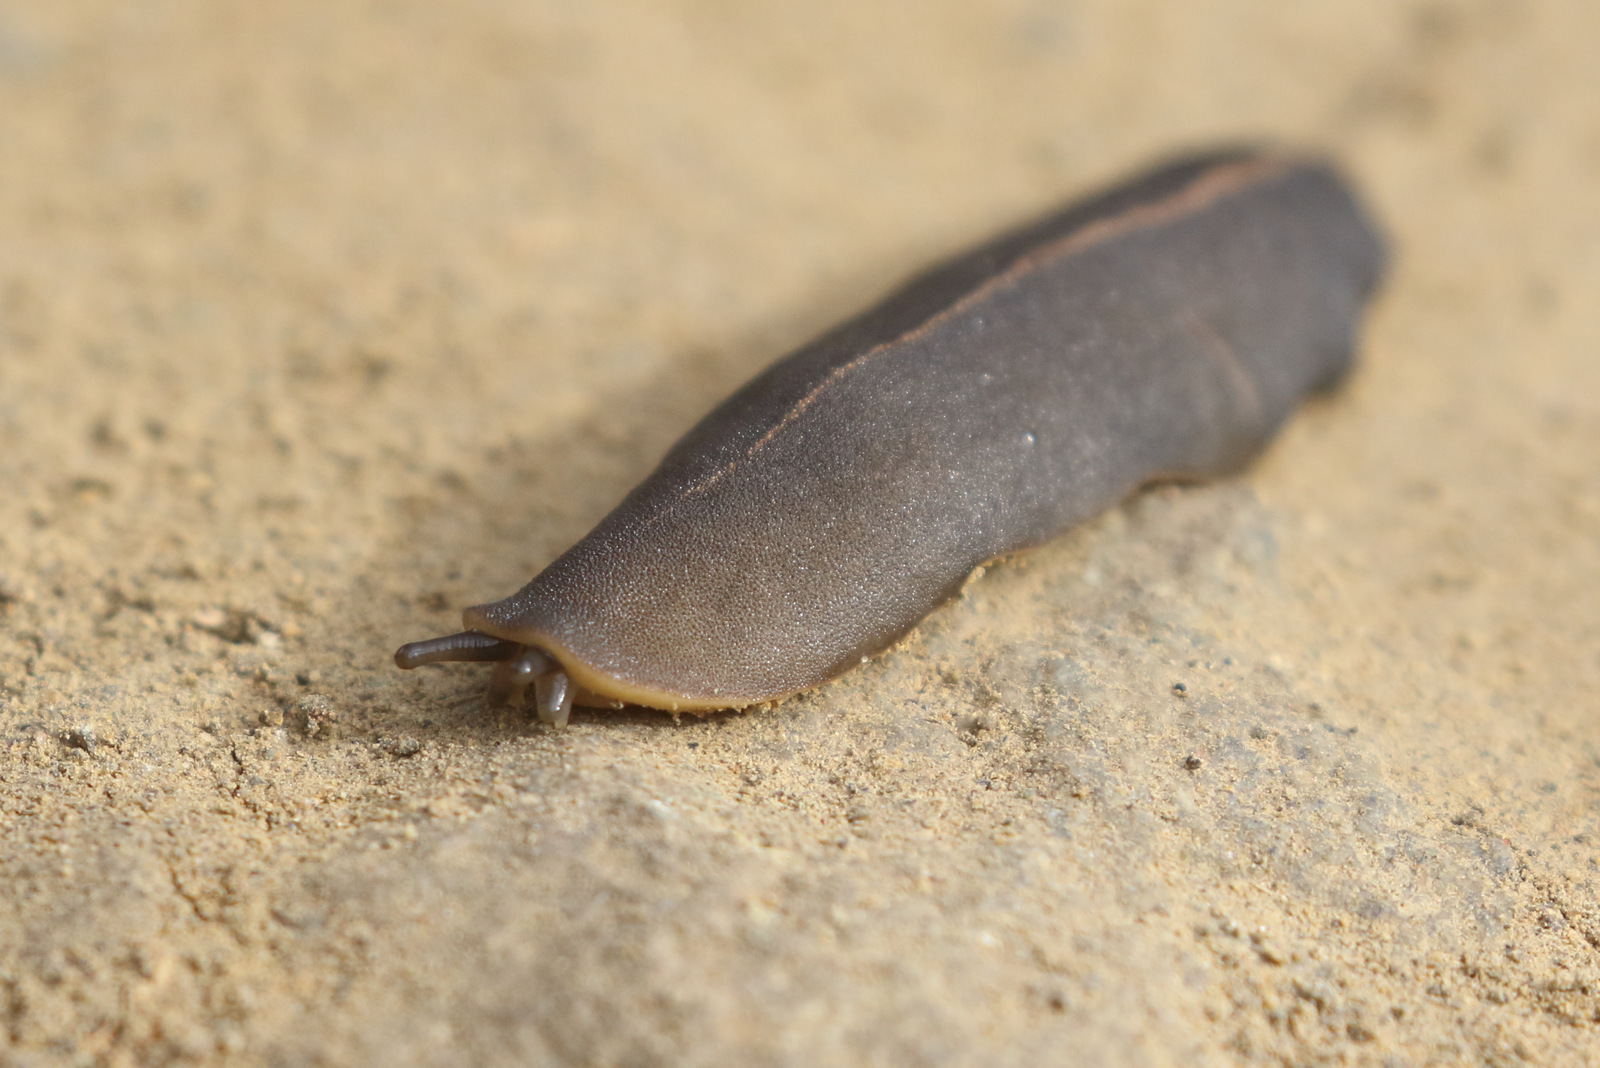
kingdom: Animalia
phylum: Mollusca
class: Gastropoda
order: Systellommatophora
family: Veronicellidae
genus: Laevicaulis
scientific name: Laevicaulis alte
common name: Tropical leatherleaf
